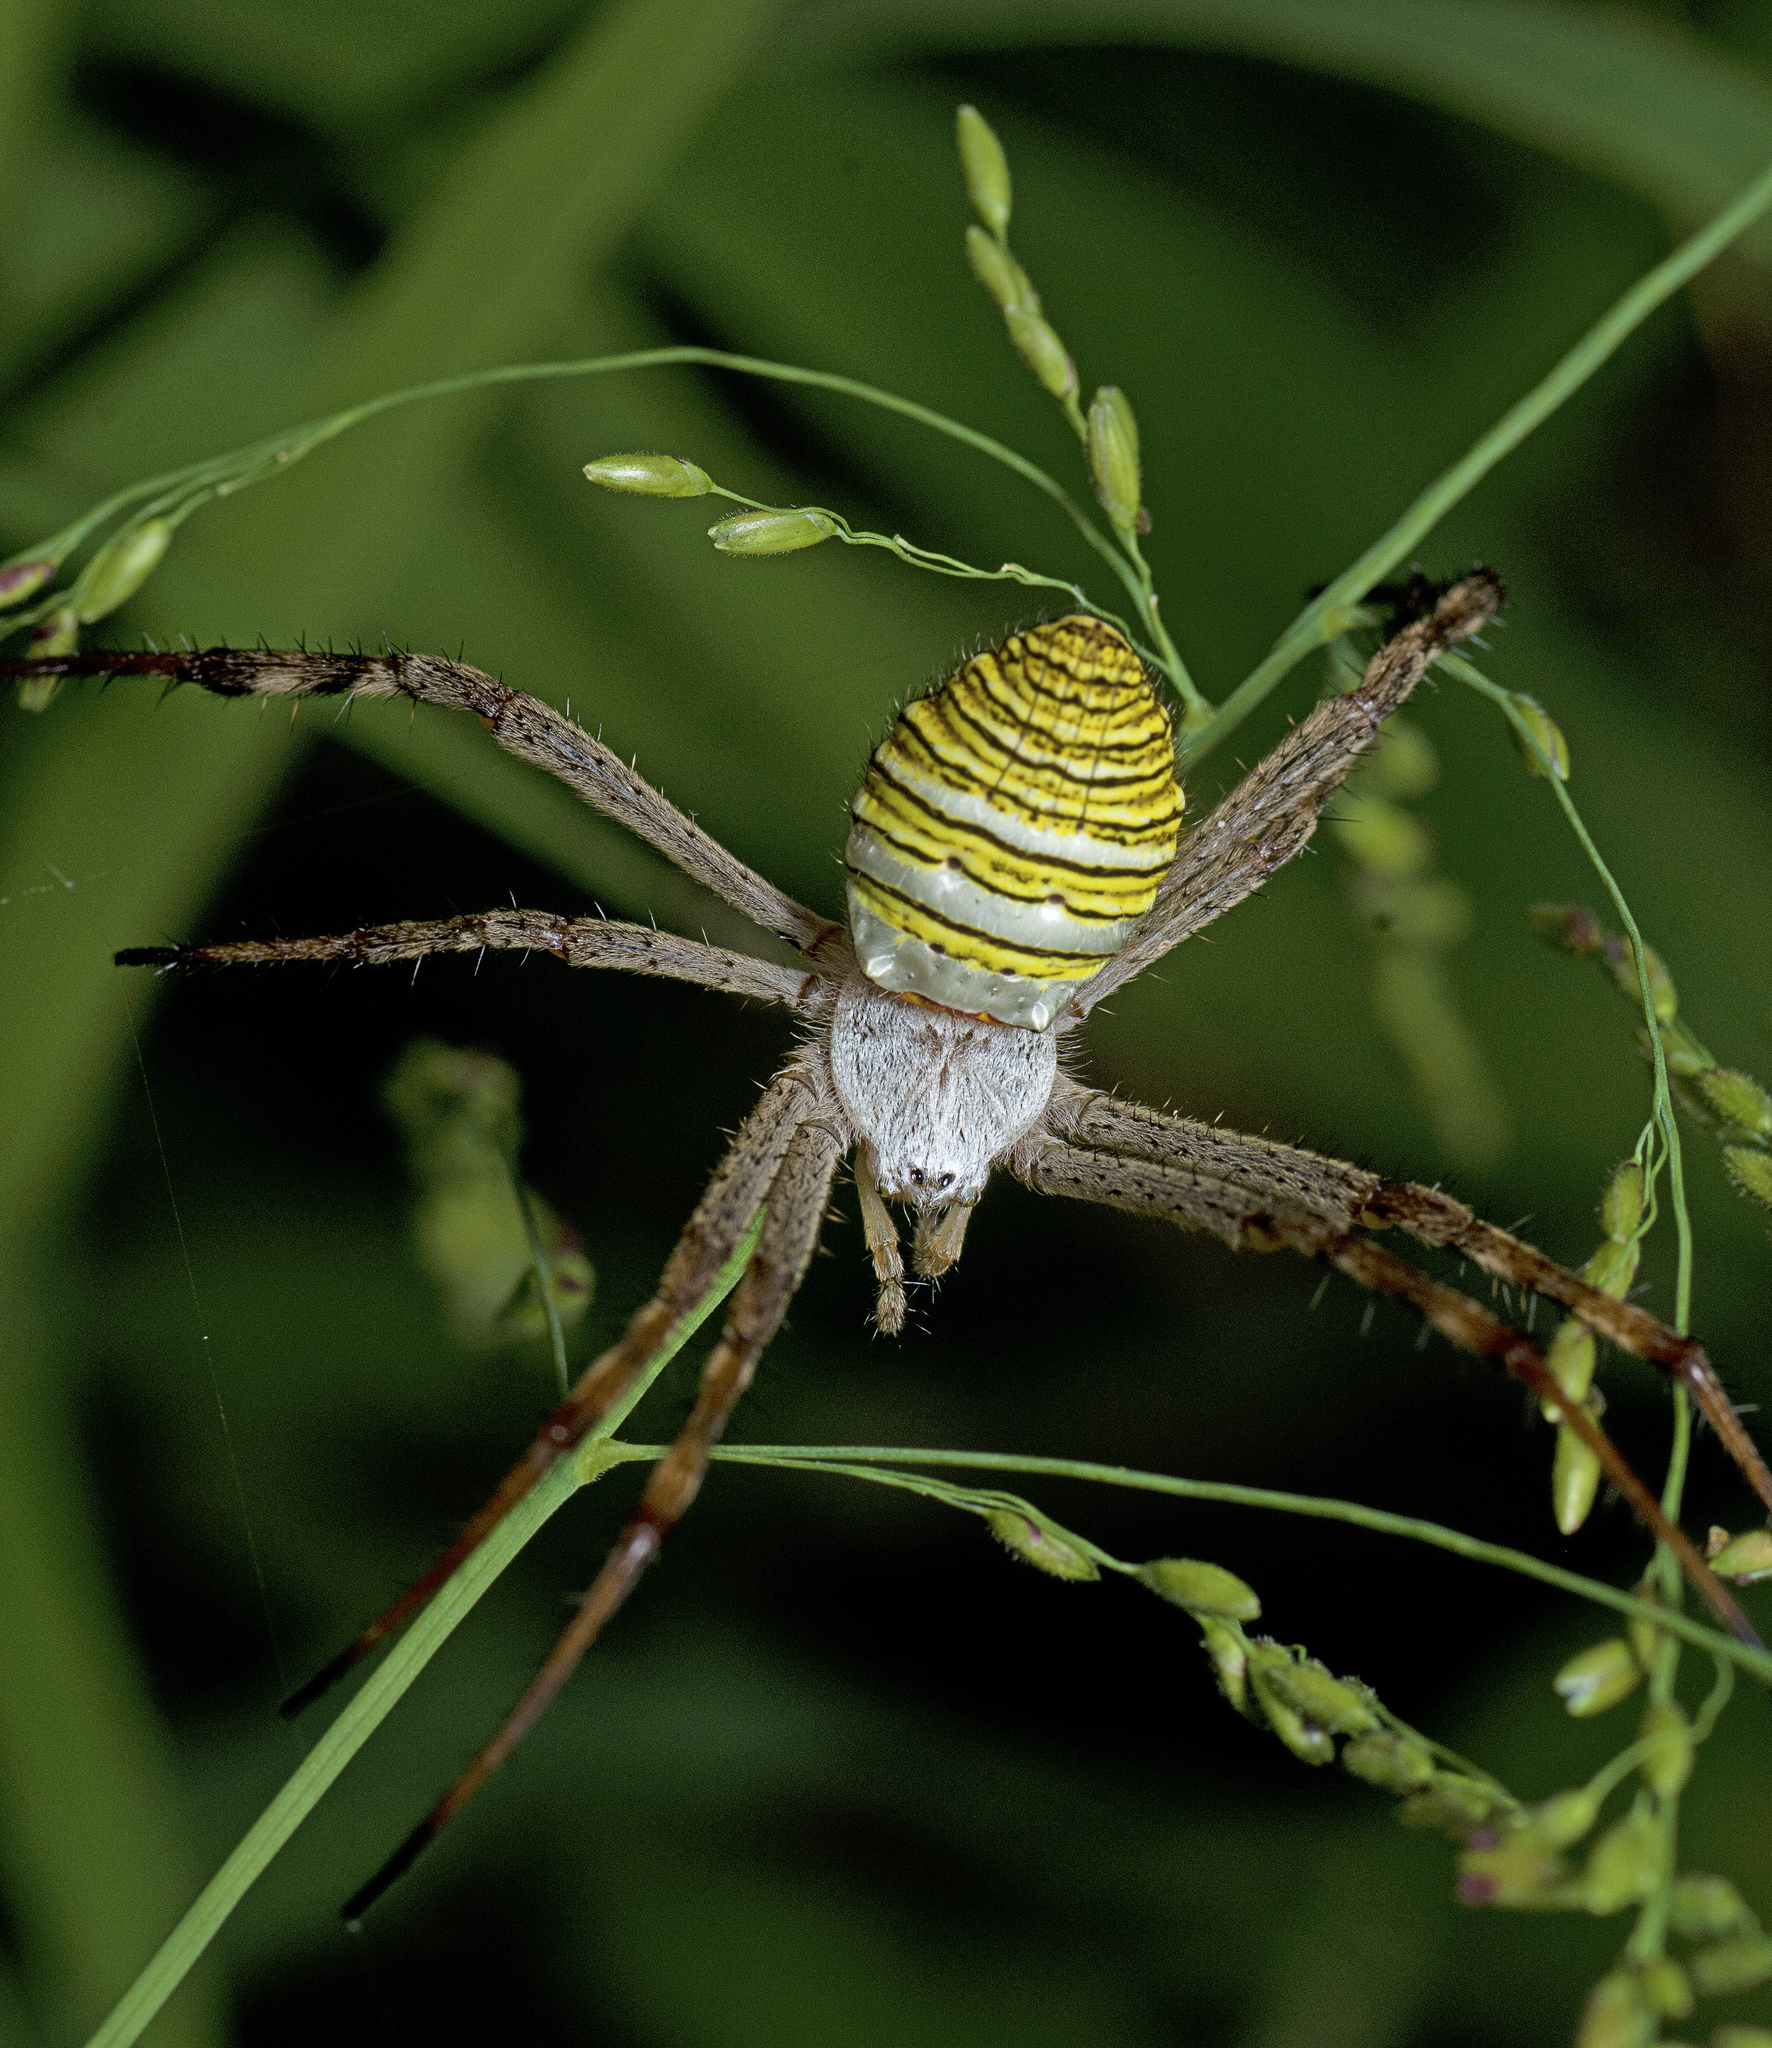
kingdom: Animalia
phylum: Arthropoda
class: Arachnida
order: Araneae
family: Araneidae
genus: Argiope
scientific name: Argiope magnifica
